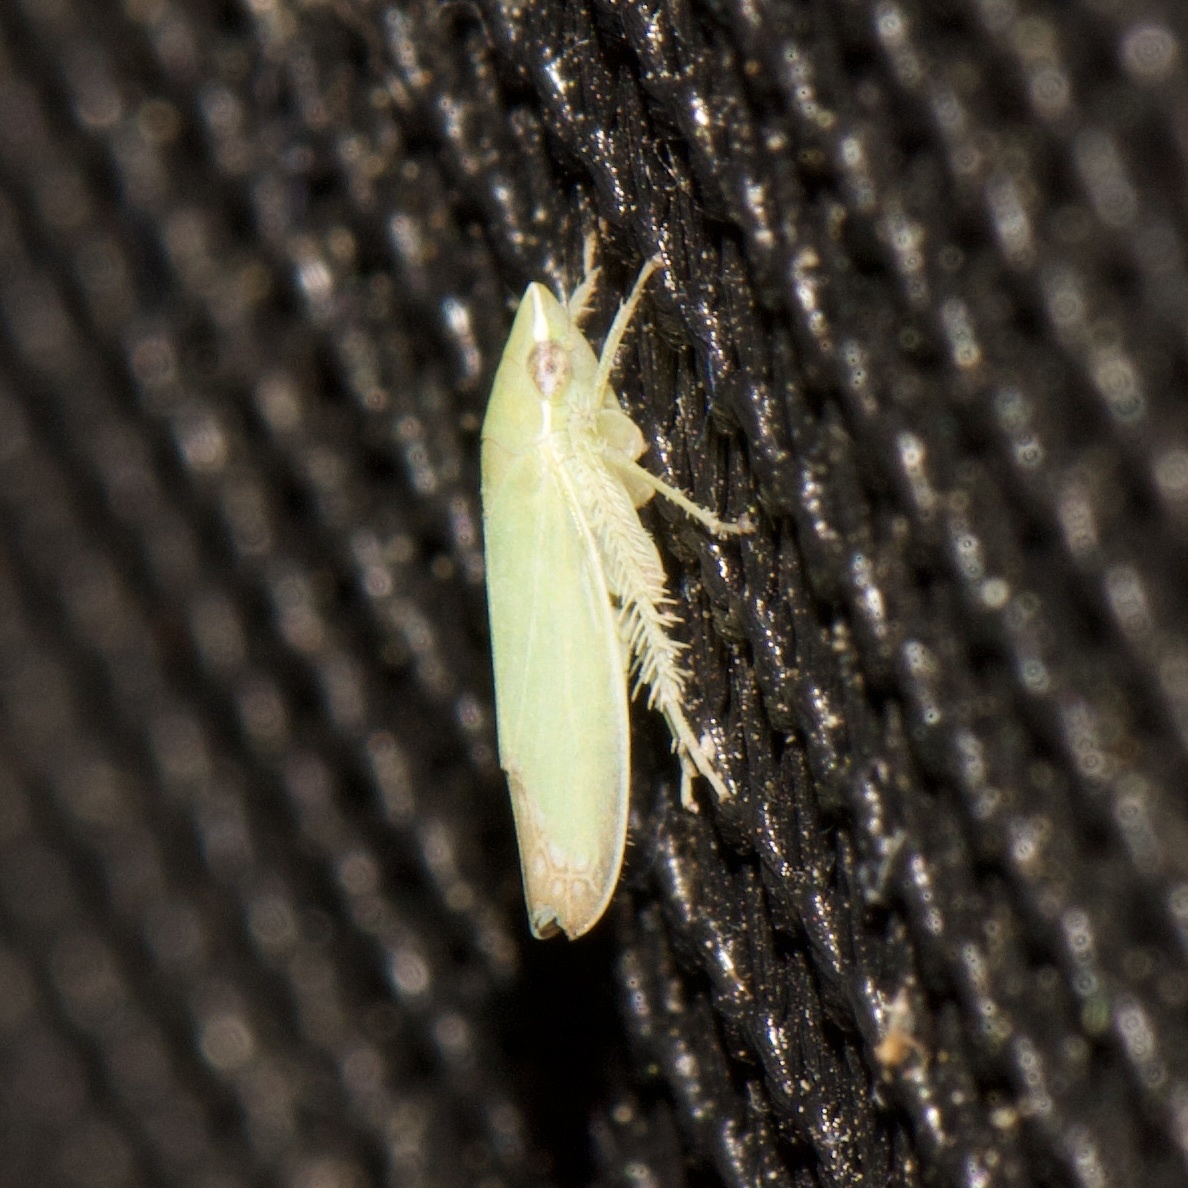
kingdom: Animalia
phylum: Arthropoda
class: Insecta
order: Hemiptera
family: Cicadellidae
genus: Memnonia
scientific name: Memnonia flavida
